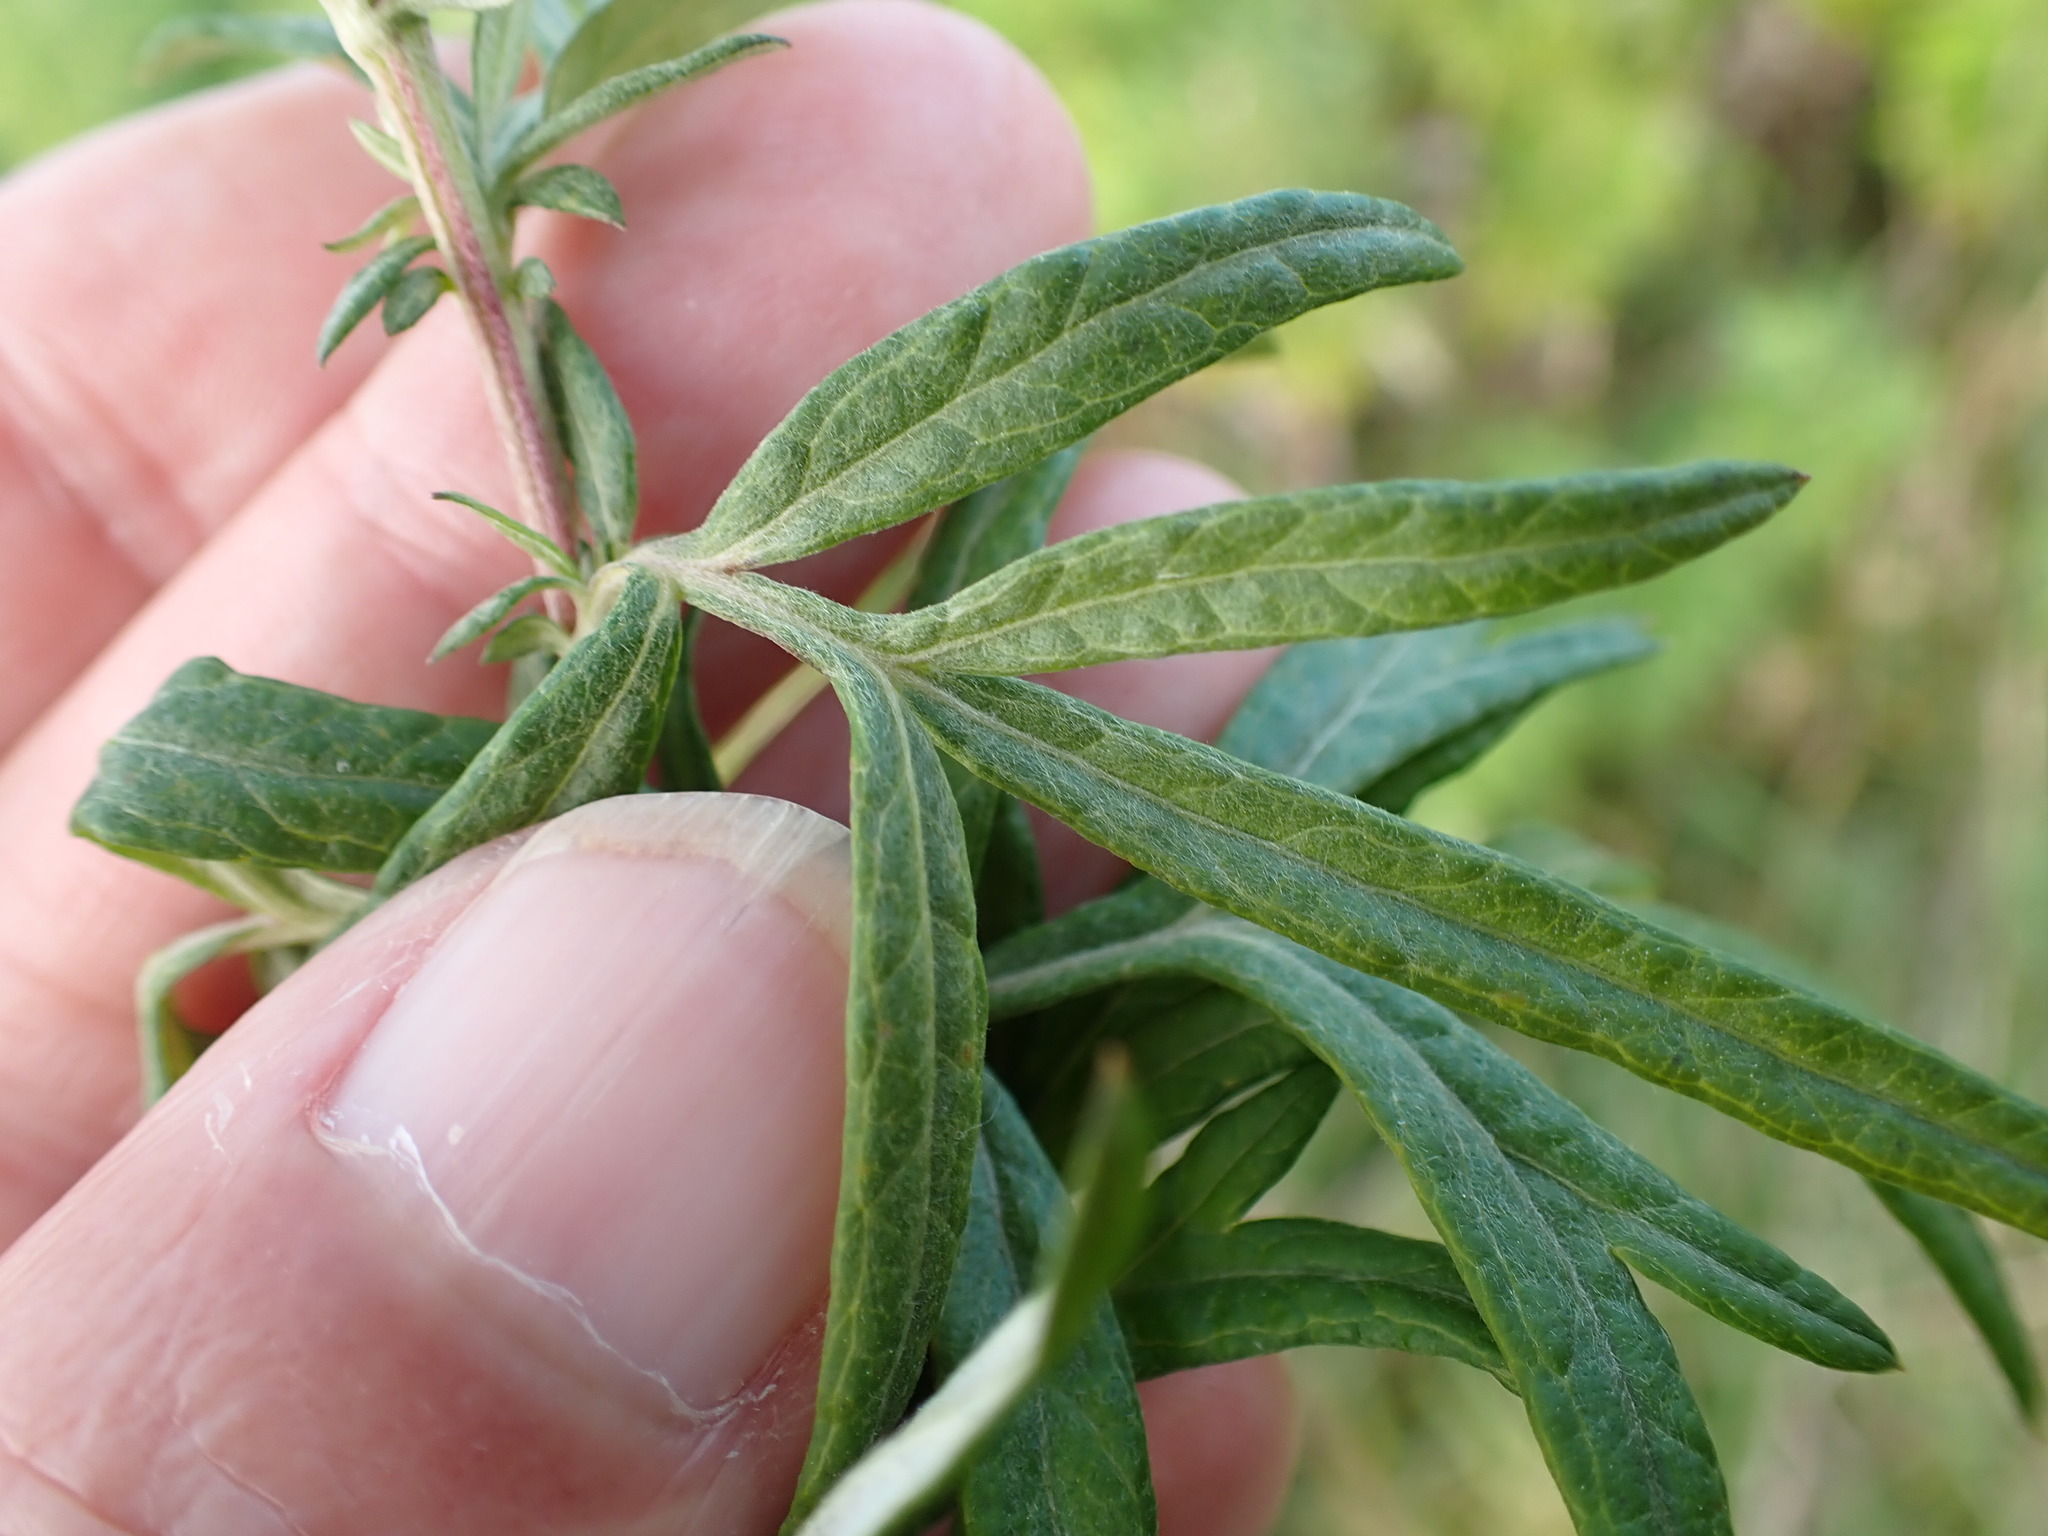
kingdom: Plantae
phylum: Tracheophyta
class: Magnoliopsida
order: Asterales
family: Asteraceae
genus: Artemisia
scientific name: Artemisia verlotiorum
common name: Chinese mugwort
